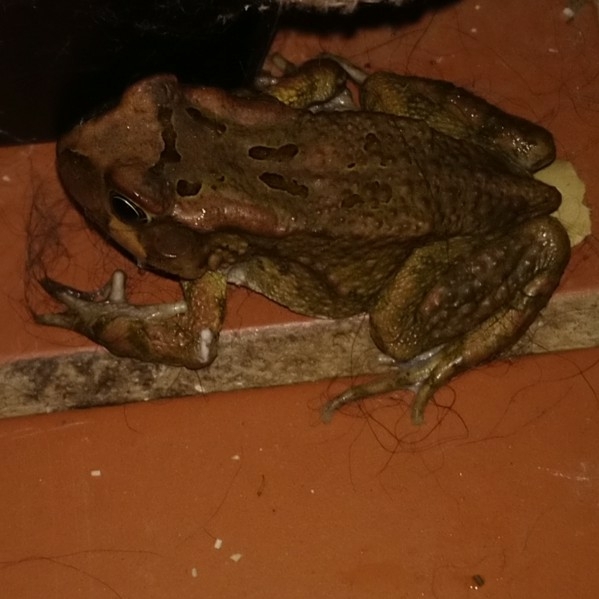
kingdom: Animalia
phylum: Chordata
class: Amphibia
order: Anura
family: Bufonidae
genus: Sclerophrys
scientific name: Sclerophrys capensis
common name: Ranger’s toad
